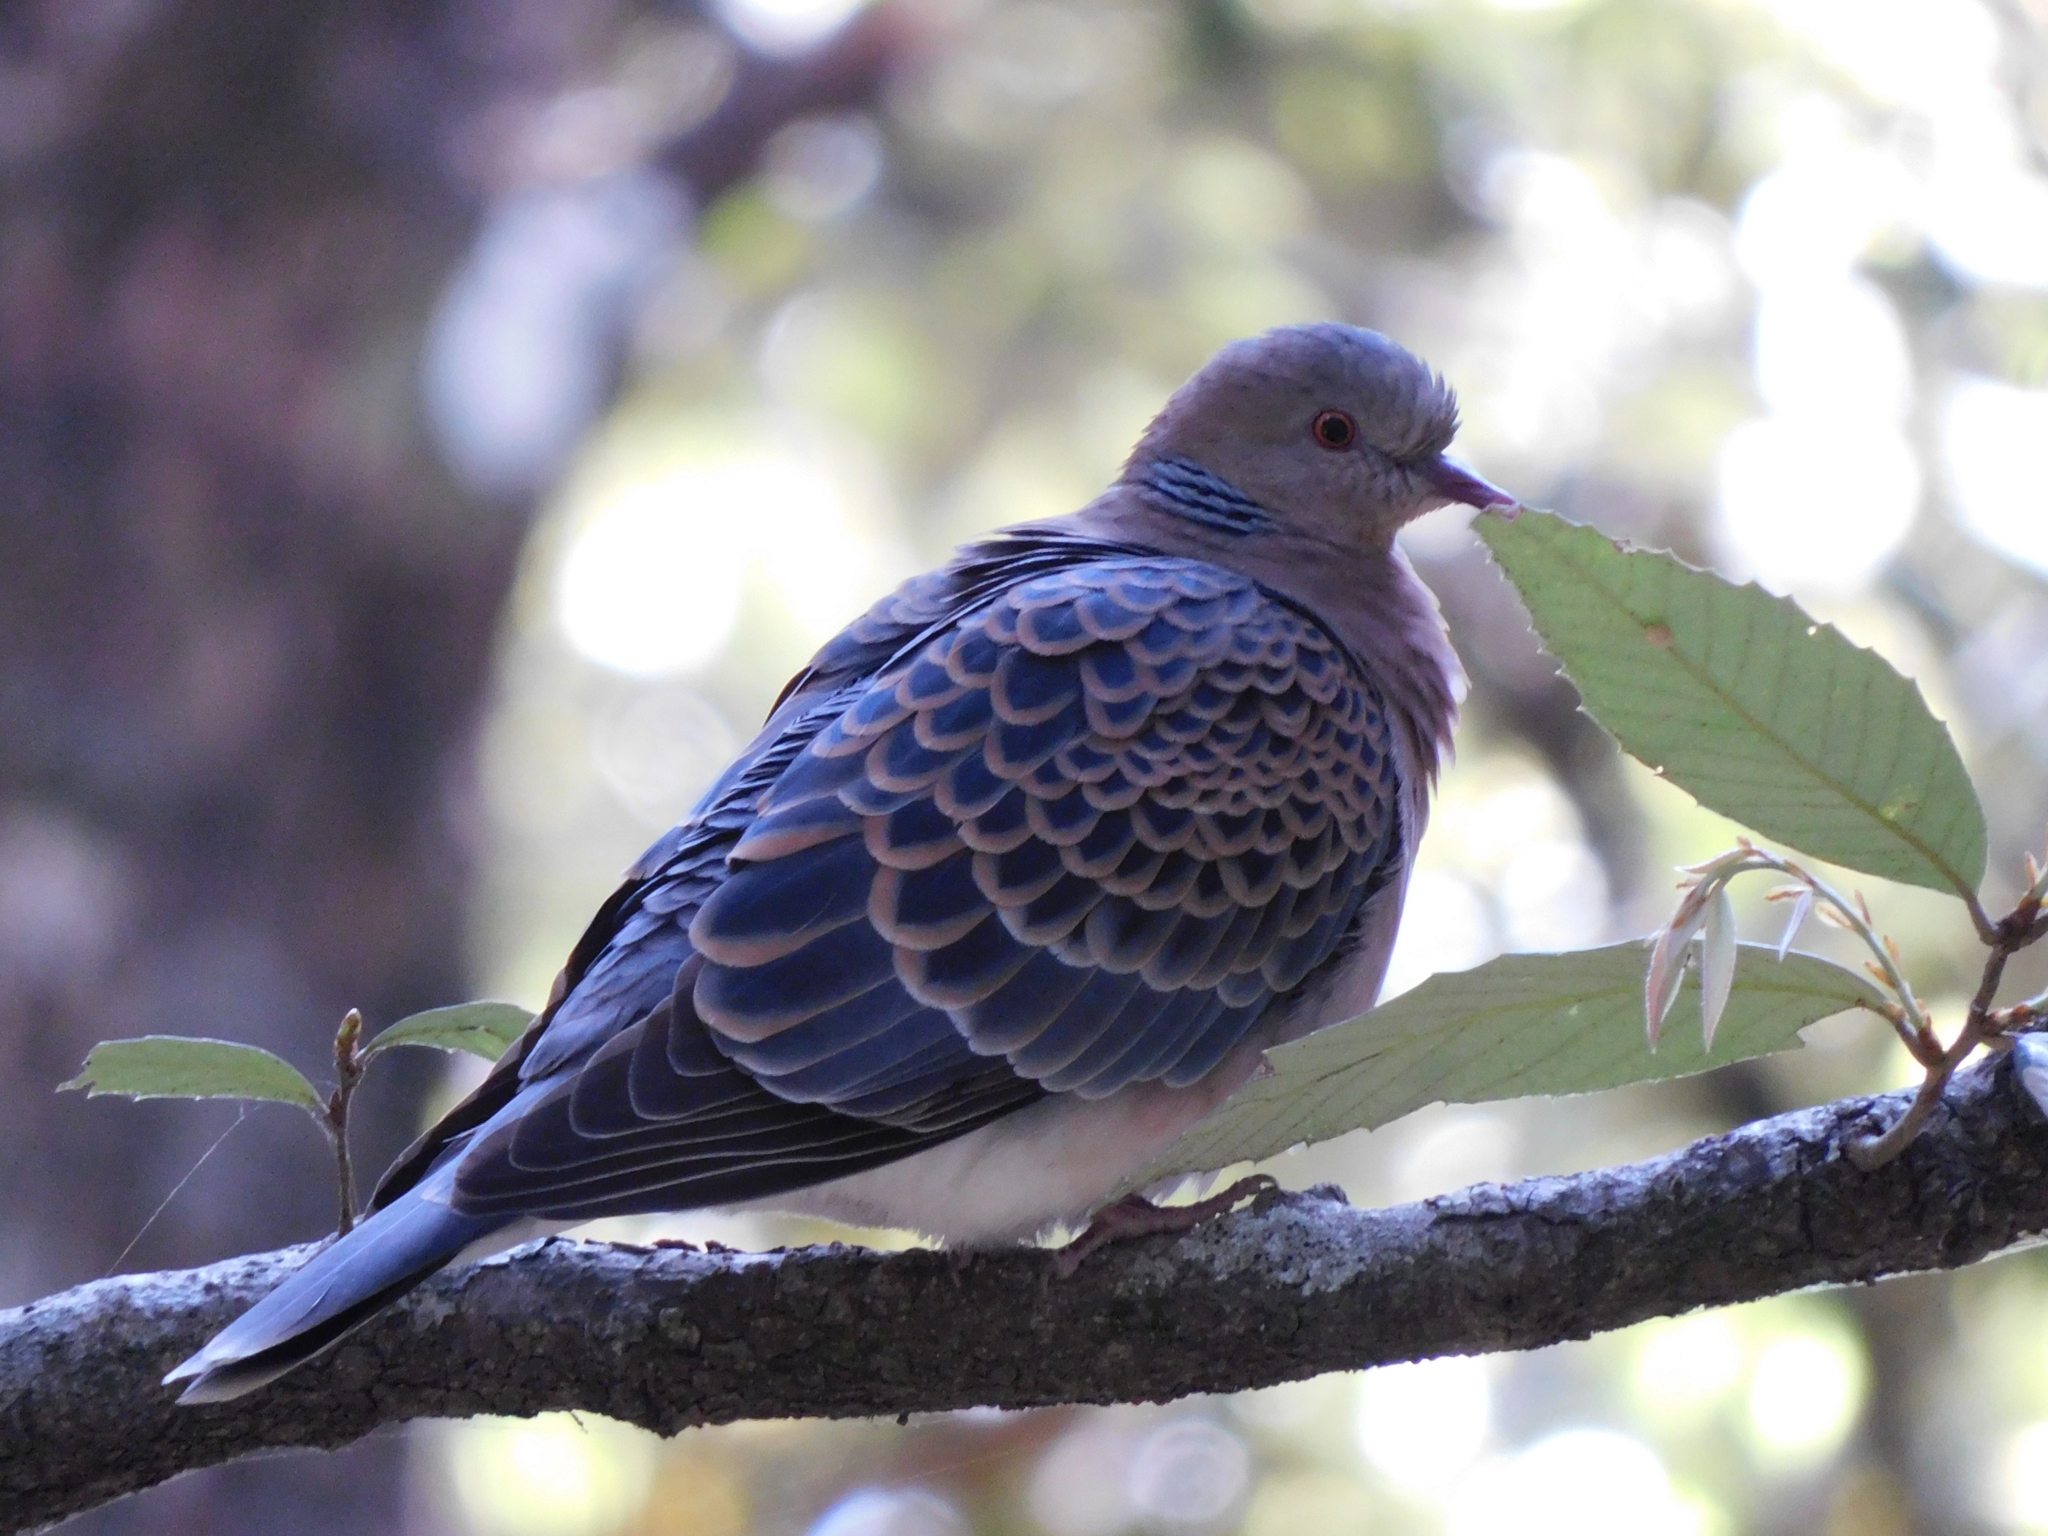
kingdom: Animalia
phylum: Chordata
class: Aves
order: Columbiformes
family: Columbidae
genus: Streptopelia
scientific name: Streptopelia orientalis
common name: Oriental turtle dove
